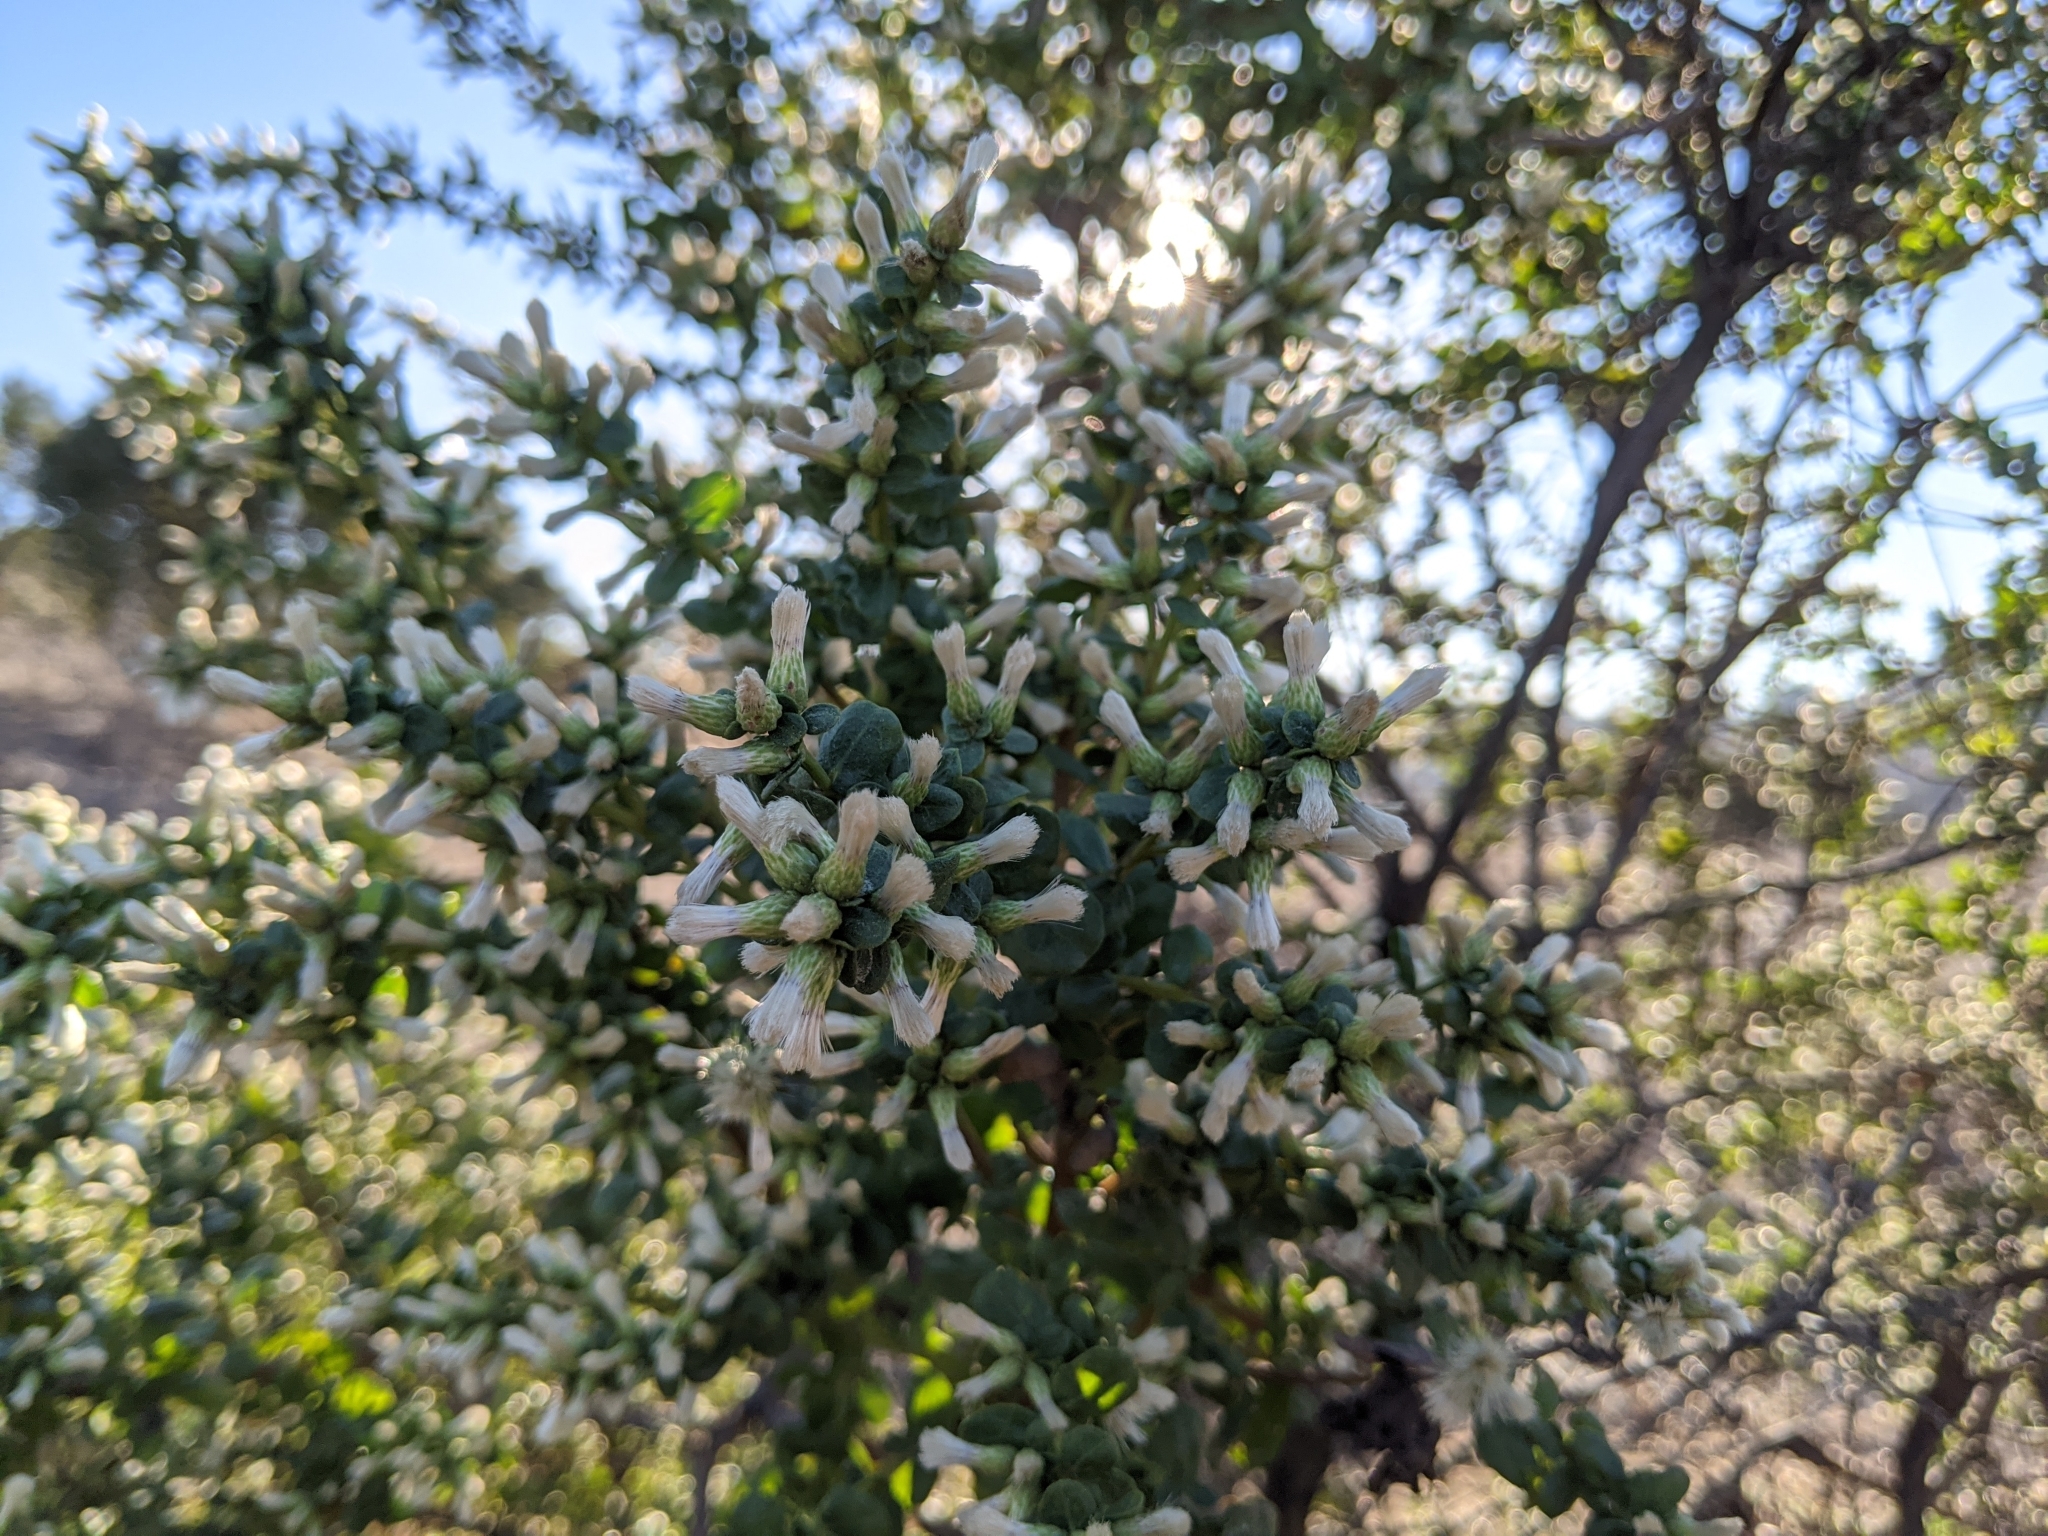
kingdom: Plantae
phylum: Tracheophyta
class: Magnoliopsida
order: Asterales
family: Asteraceae
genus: Baccharis
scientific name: Baccharis pilularis
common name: Coyotebrush
